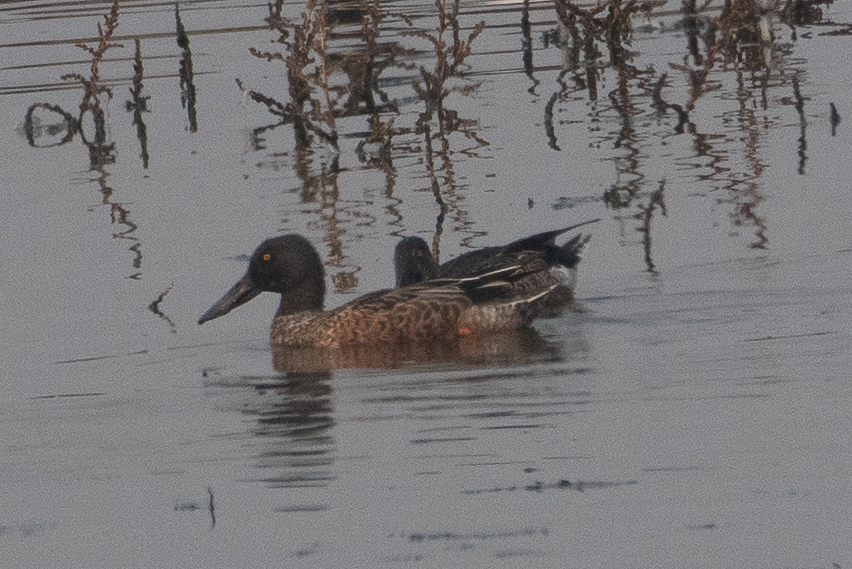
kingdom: Animalia
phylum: Chordata
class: Aves
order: Anseriformes
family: Anatidae
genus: Spatula
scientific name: Spatula clypeata
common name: Northern shoveler
